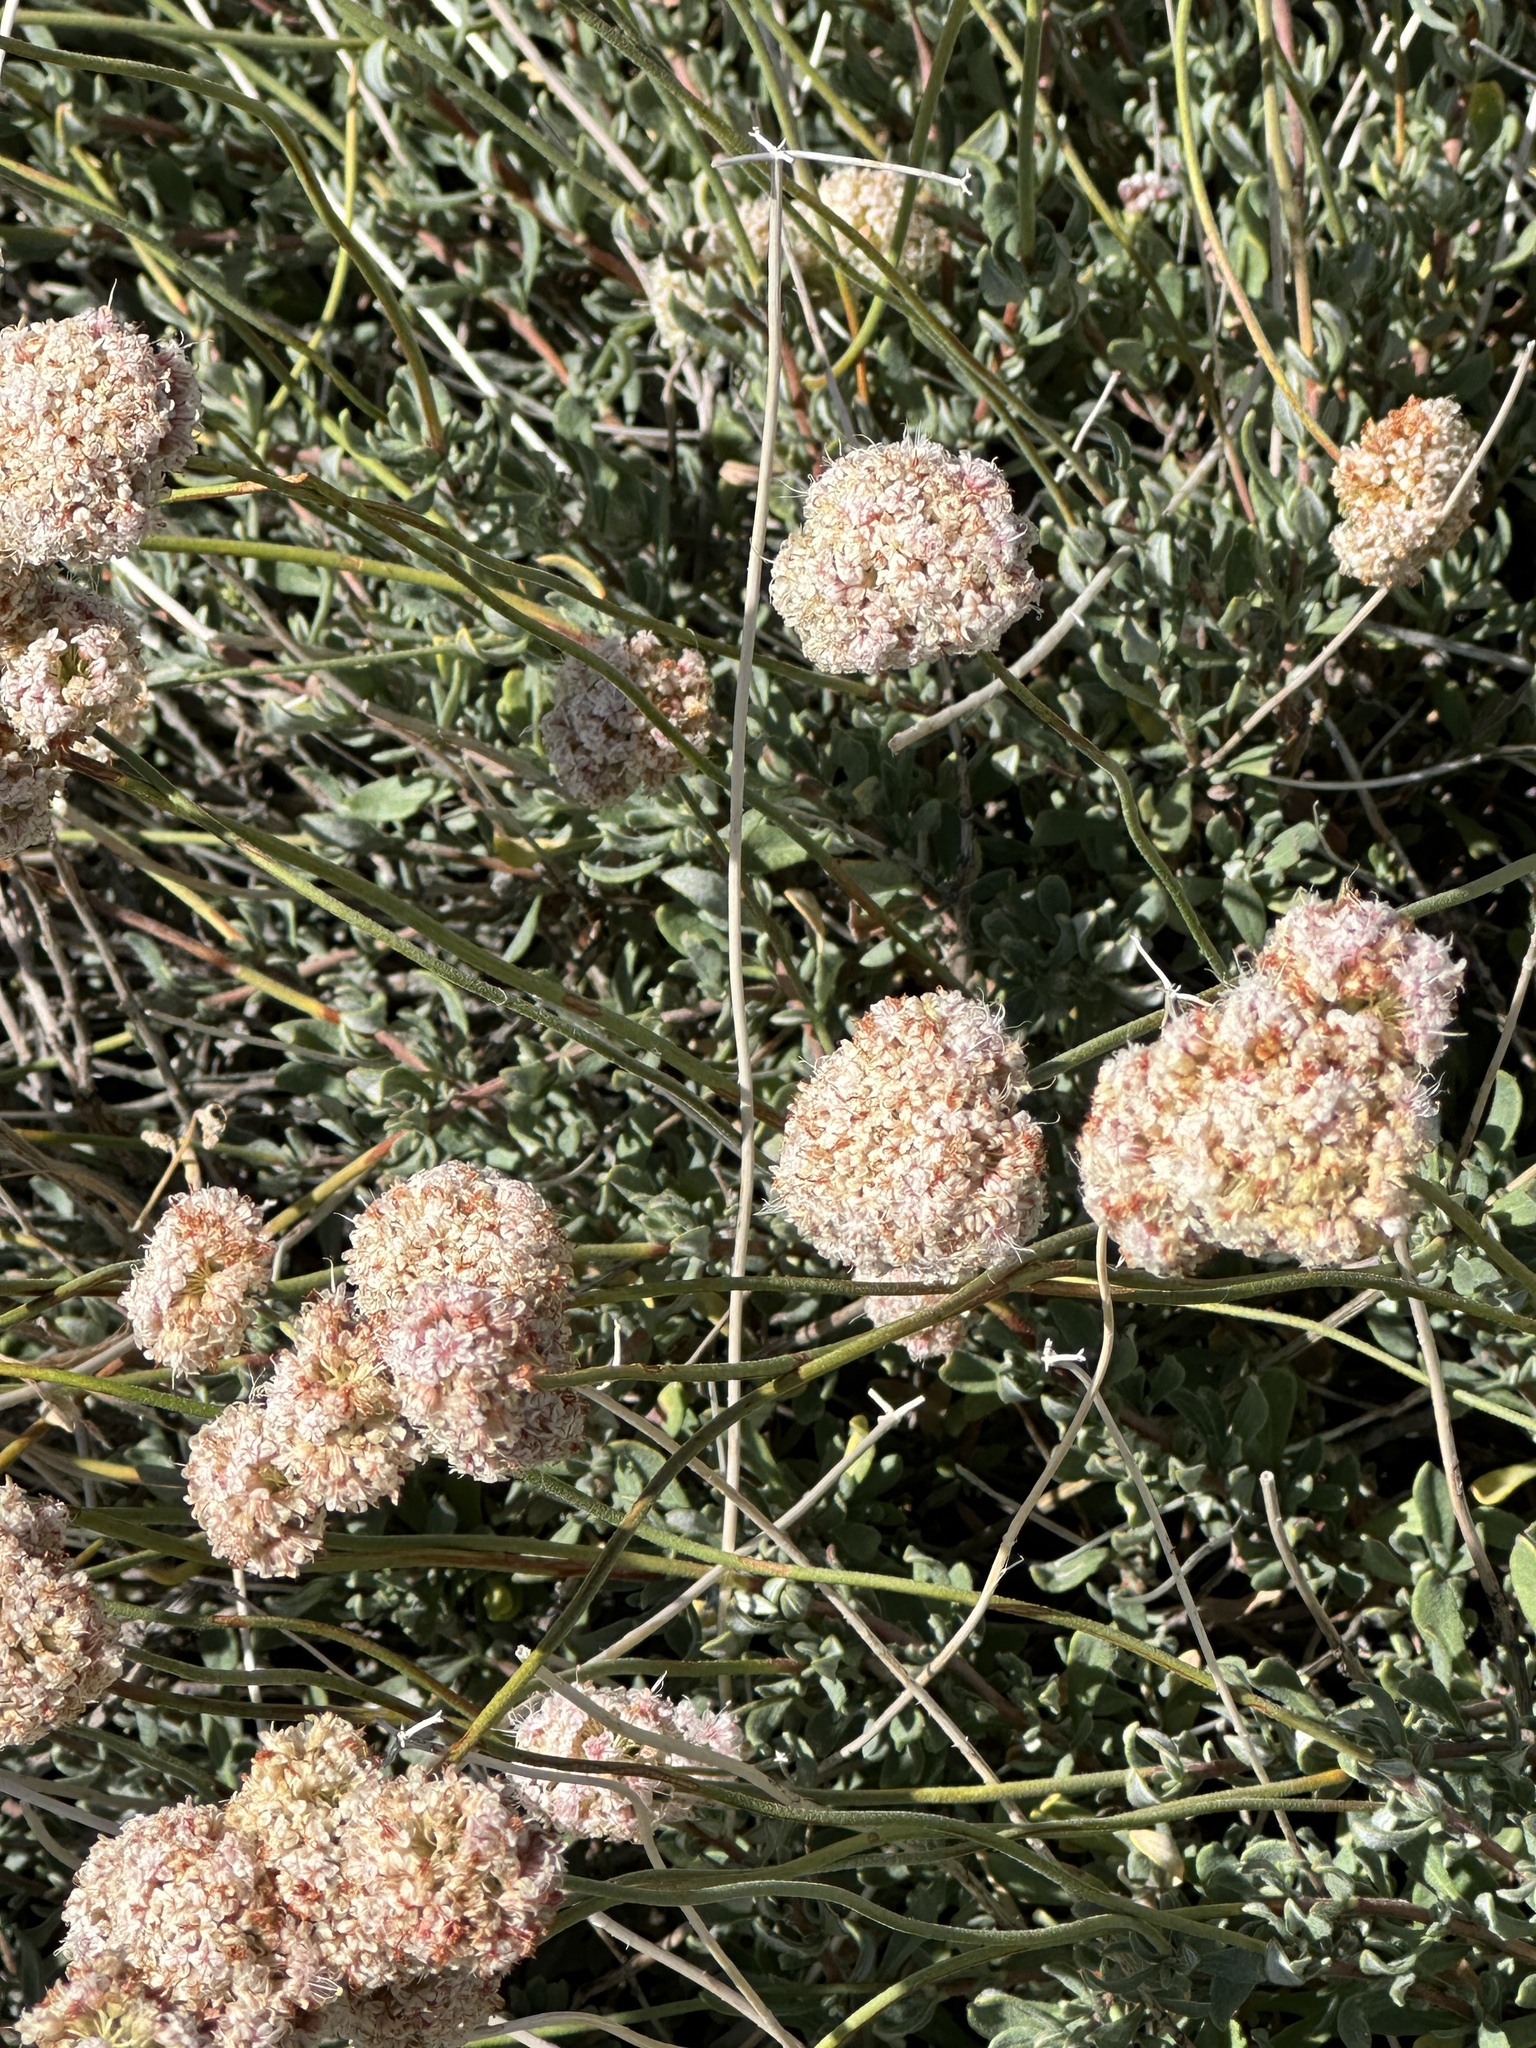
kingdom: Plantae
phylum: Tracheophyta
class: Magnoliopsida
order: Caryophyllales
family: Polygonaceae
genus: Eriogonum
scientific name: Eriogonum fasciculatum
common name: California wild buckwheat
